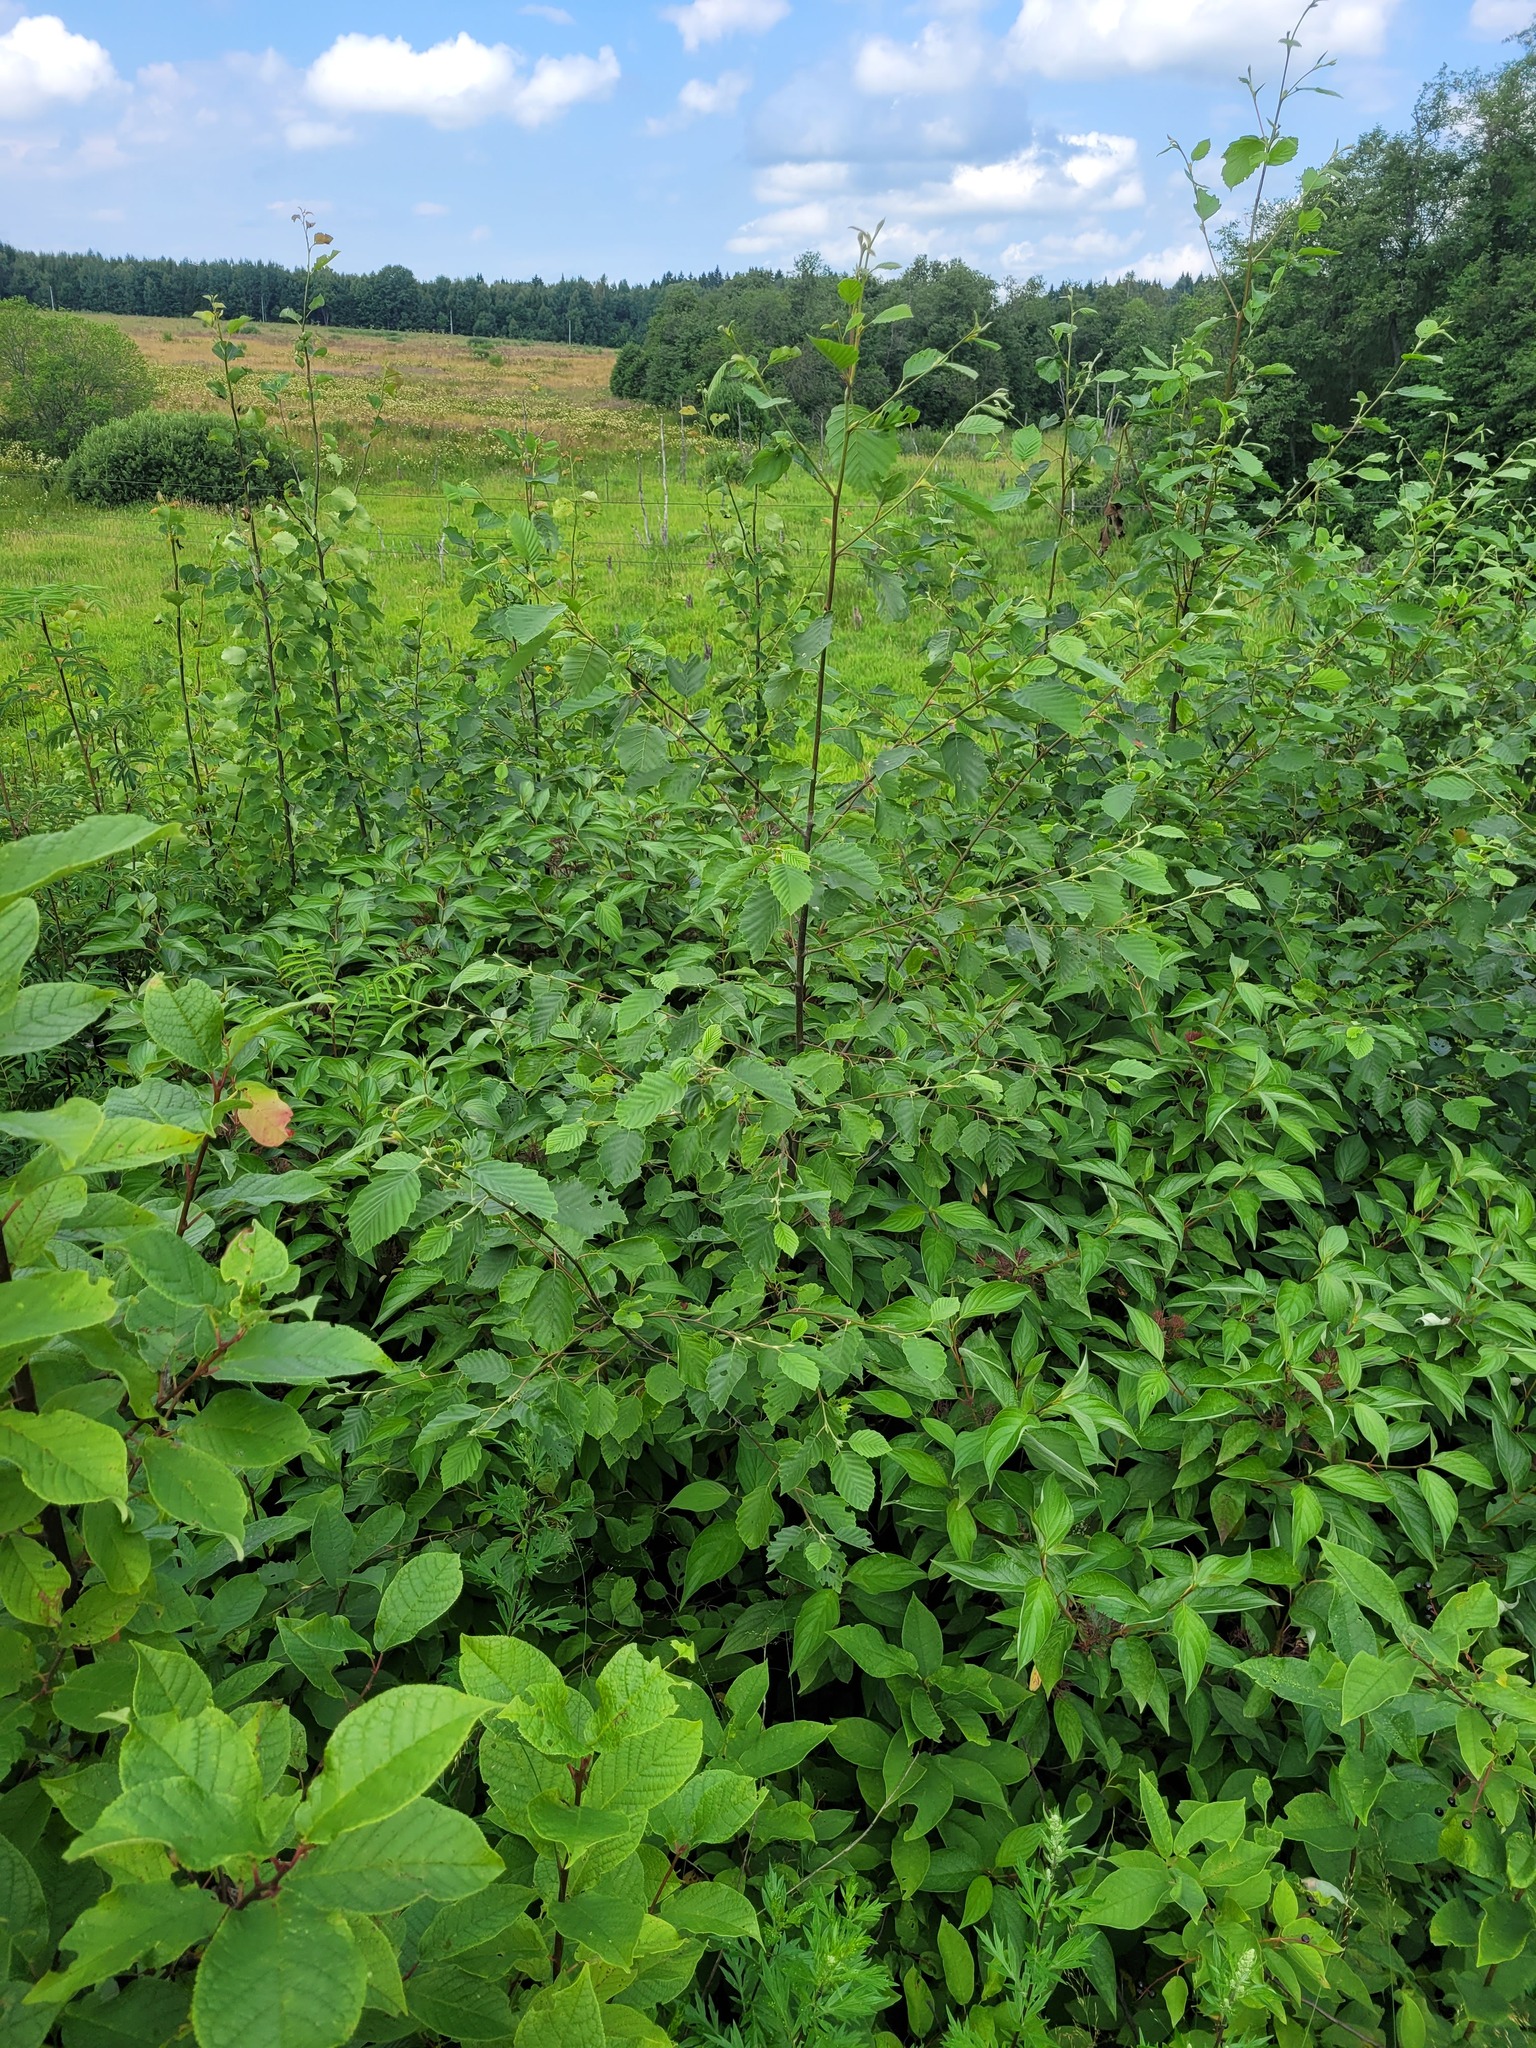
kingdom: Plantae
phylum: Tracheophyta
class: Magnoliopsida
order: Fagales
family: Betulaceae
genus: Alnus
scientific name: Alnus incana
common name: Grey alder
